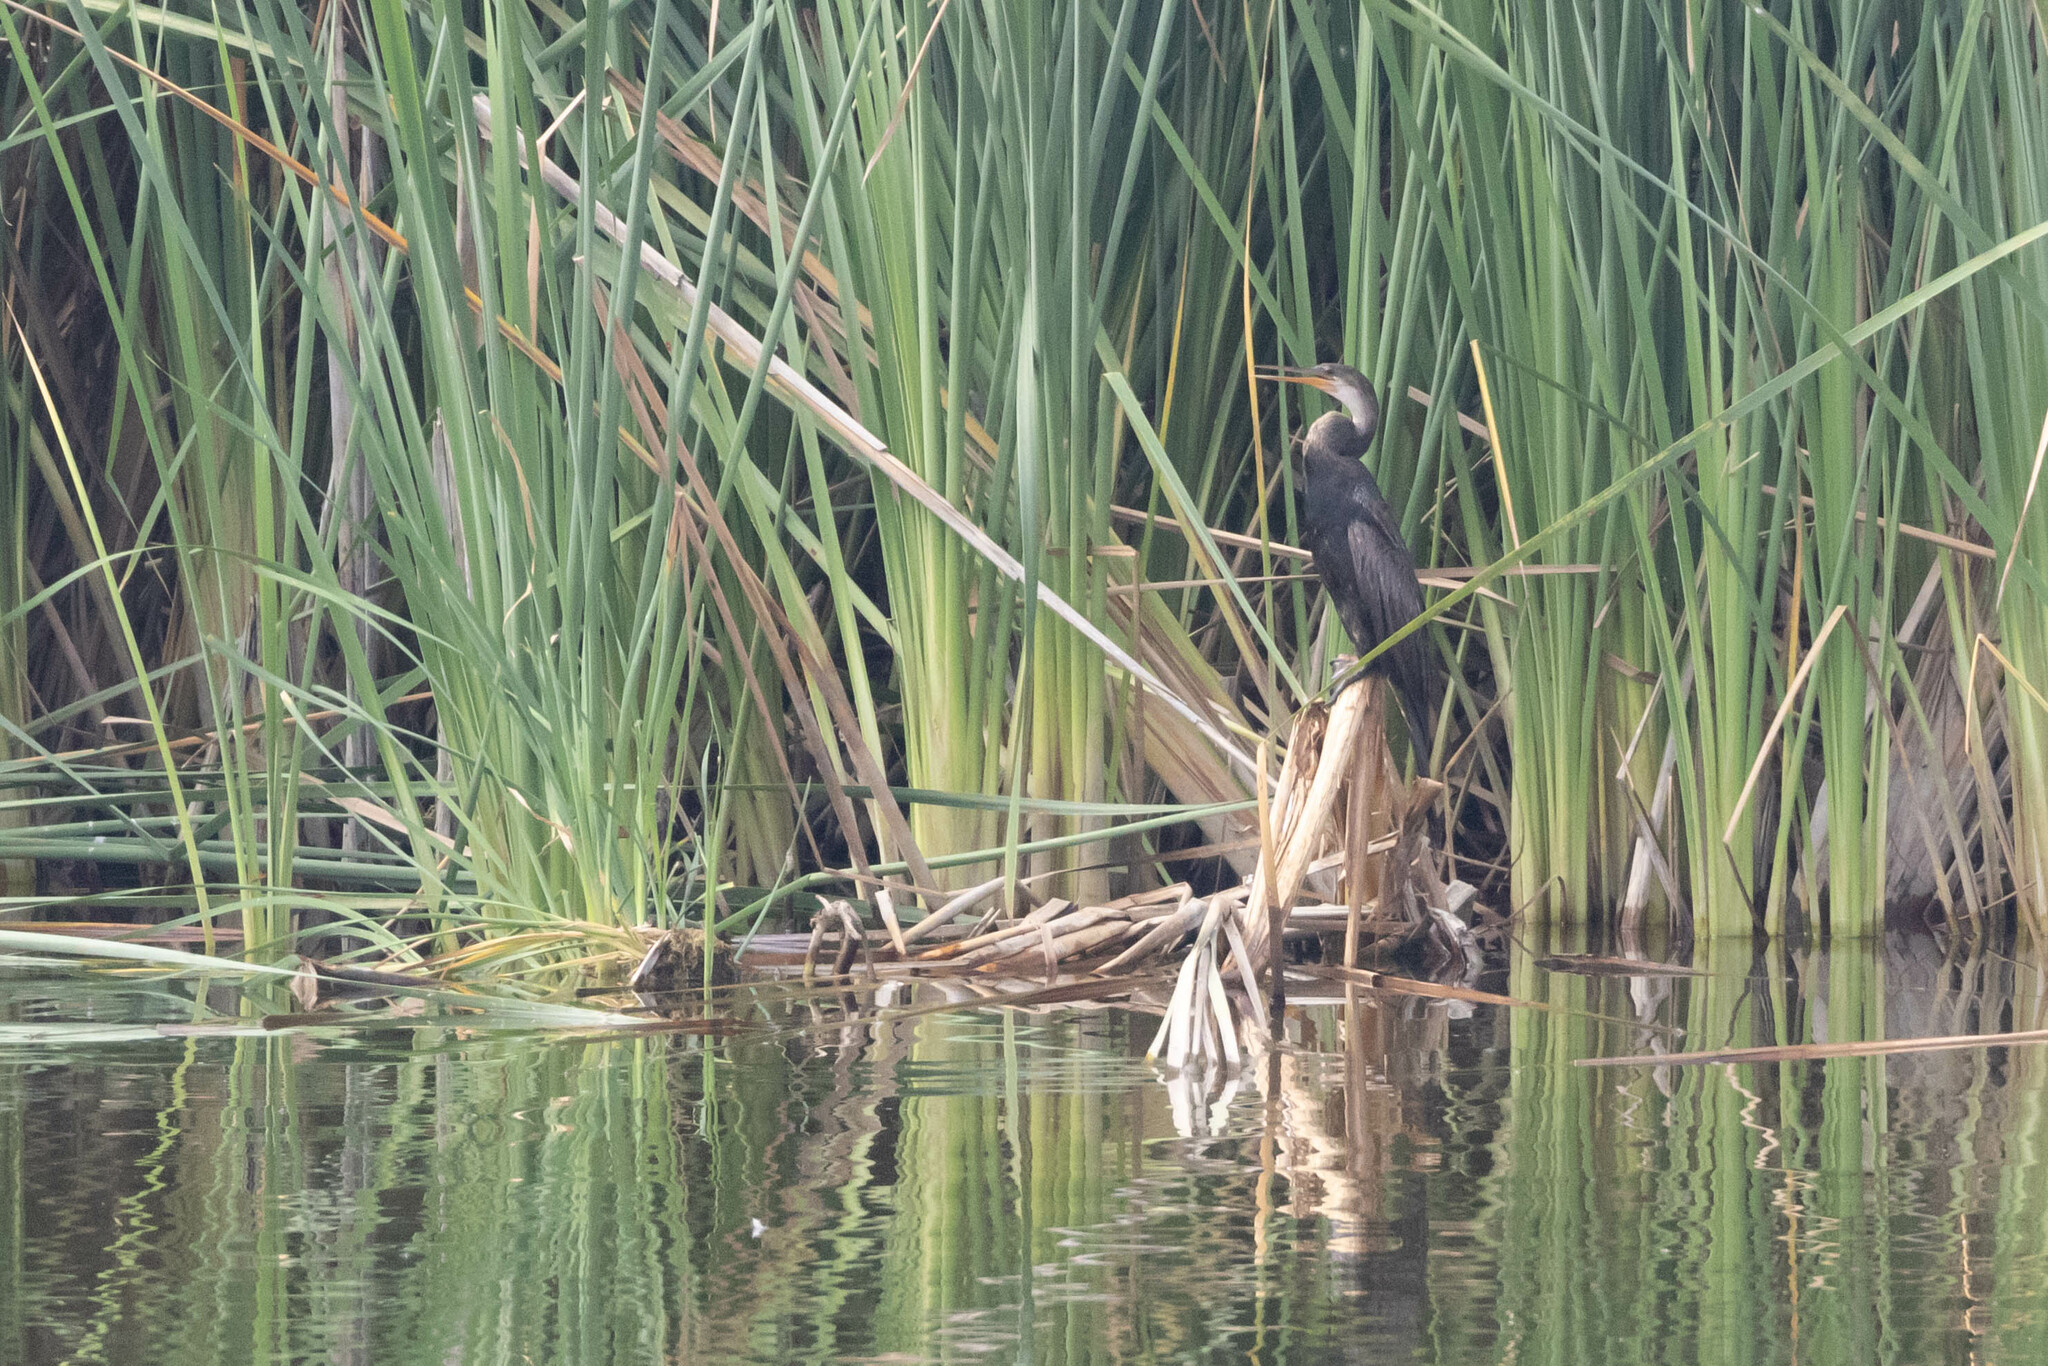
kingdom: Animalia
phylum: Chordata
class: Aves
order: Suliformes
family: Anhingidae
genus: Anhinga
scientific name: Anhinga anhinga
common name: Anhinga
